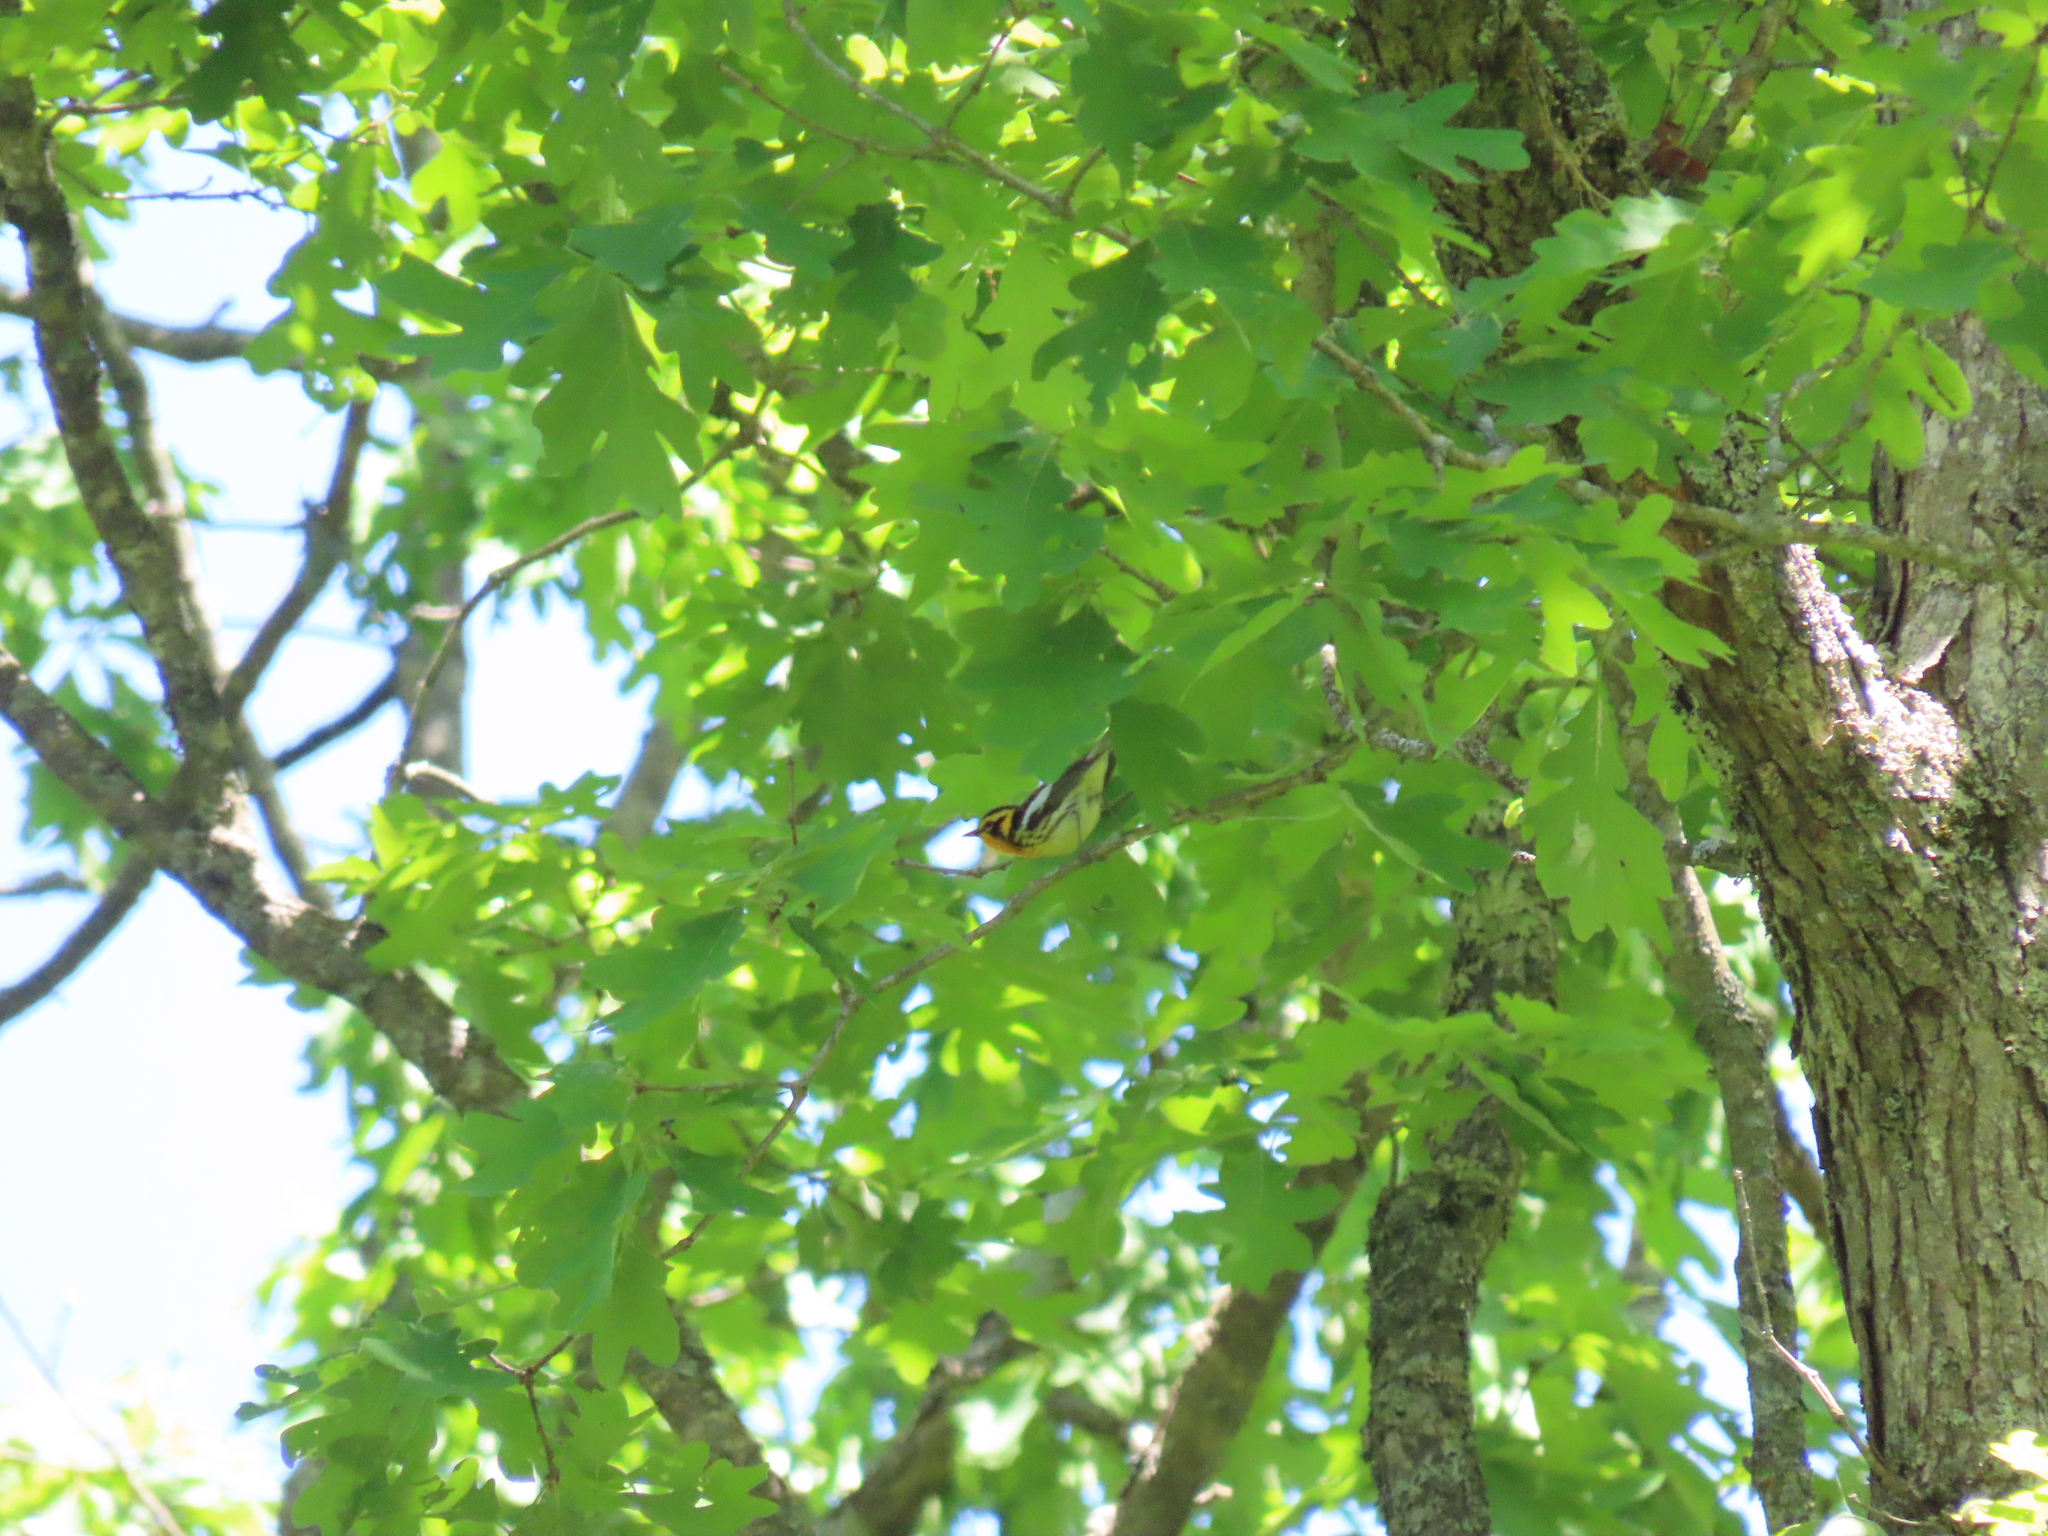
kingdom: Animalia
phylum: Chordata
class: Aves
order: Passeriformes
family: Parulidae
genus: Setophaga
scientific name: Setophaga fusca
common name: Blackburnian warbler
